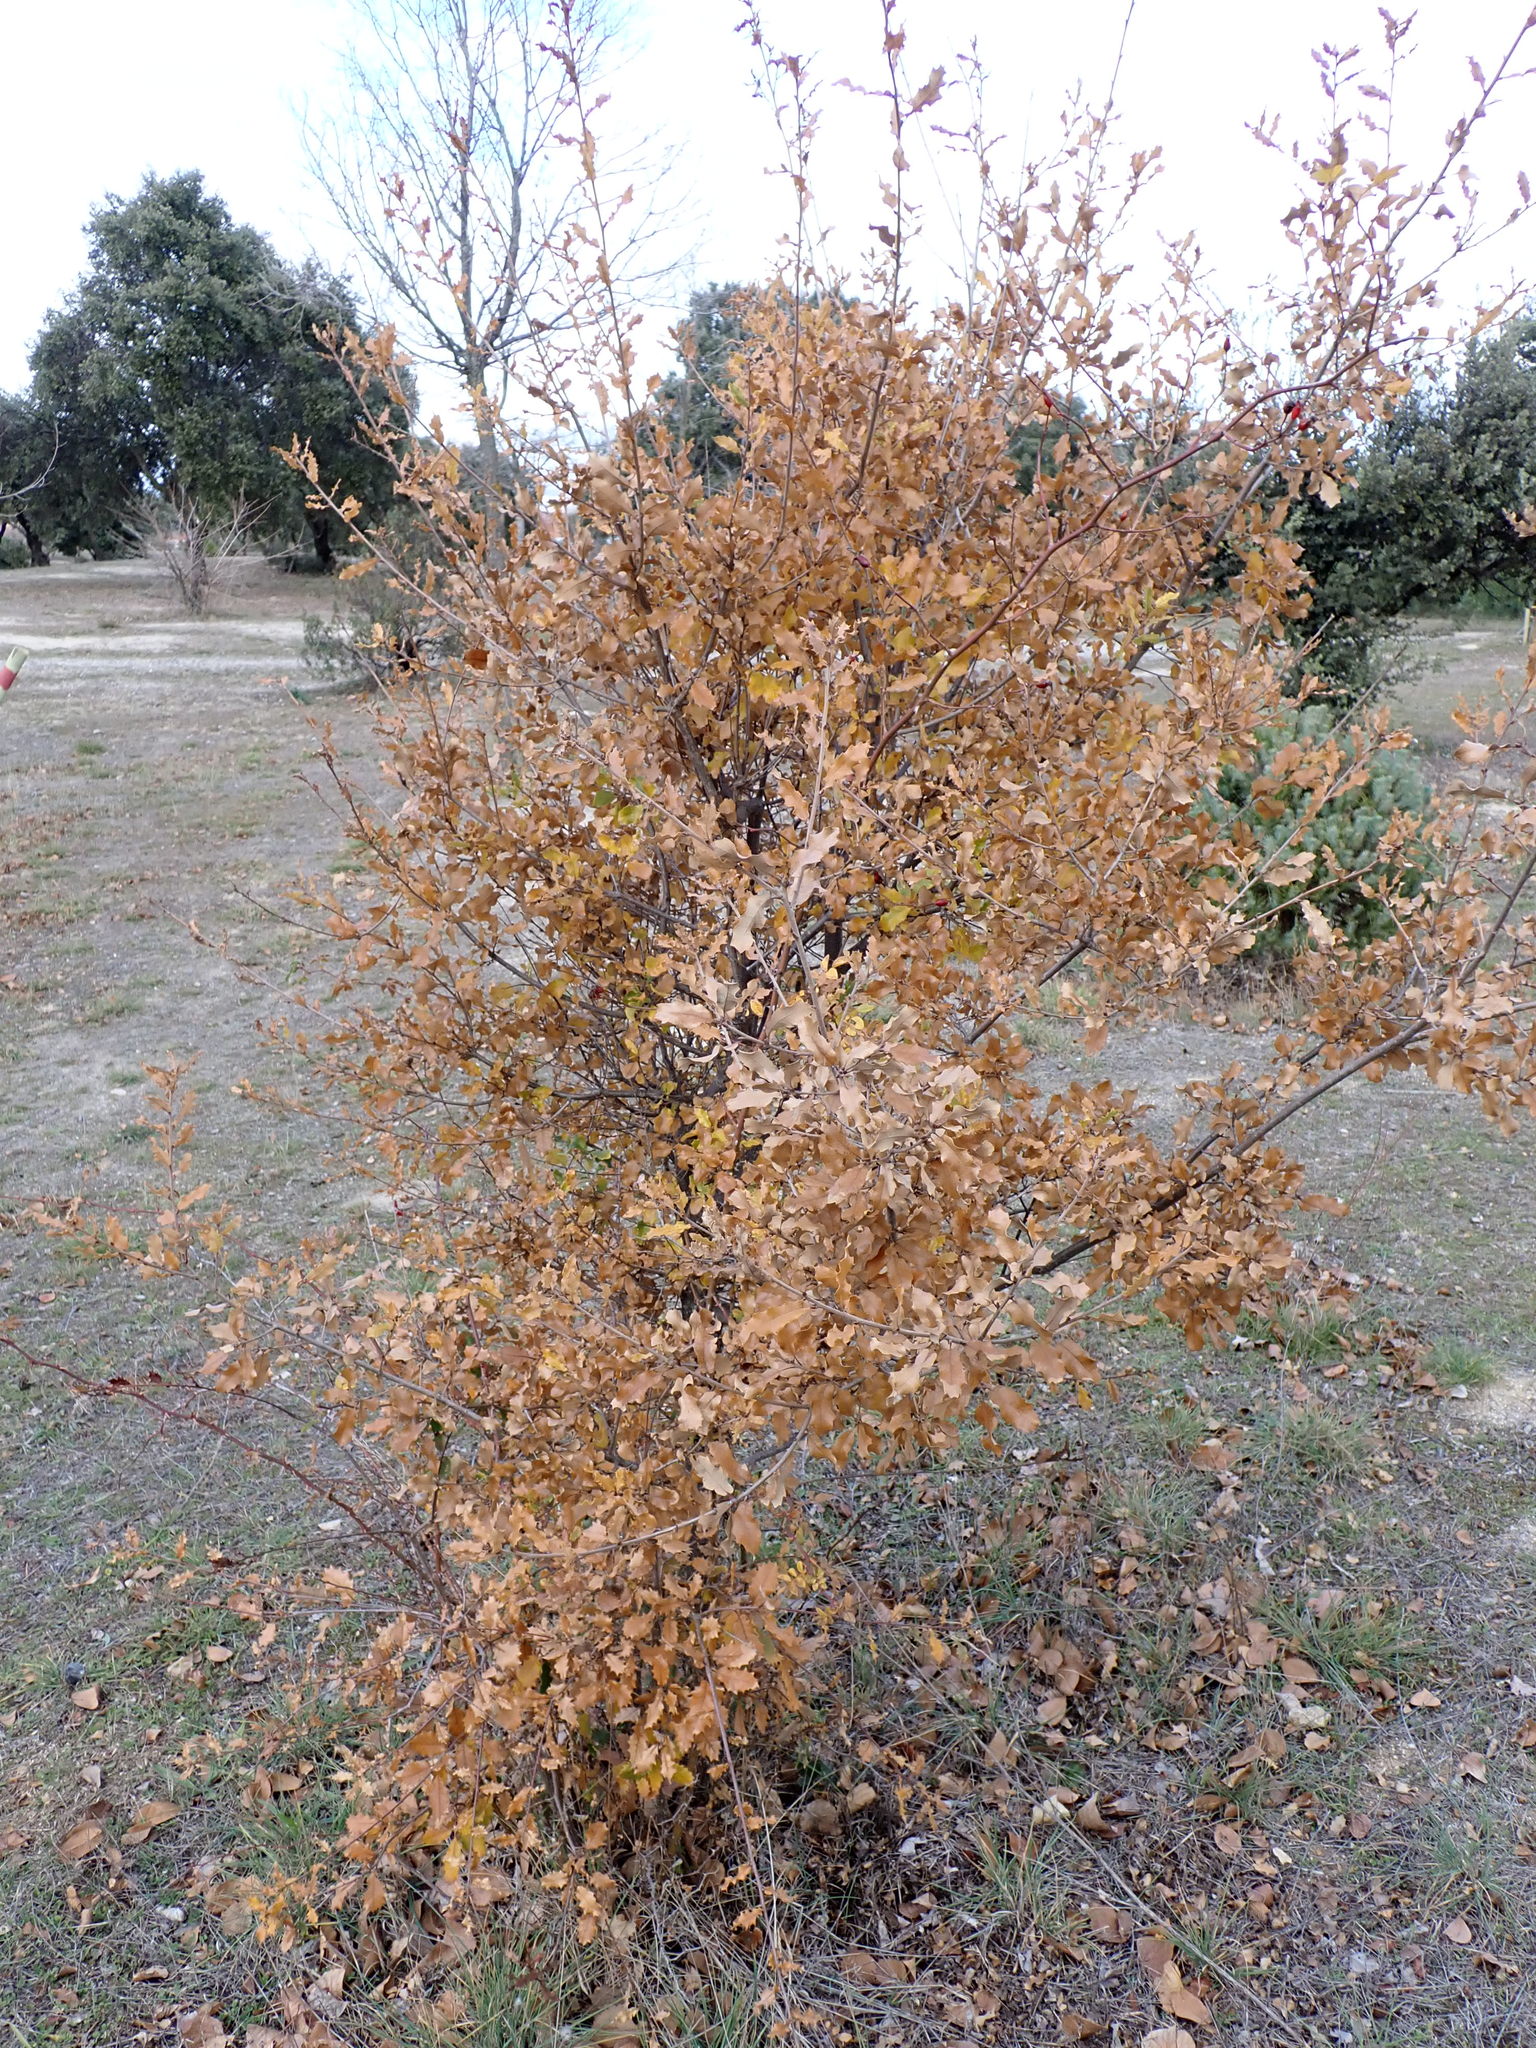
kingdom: Plantae
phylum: Tracheophyta
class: Magnoliopsida
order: Fagales
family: Fagaceae
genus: Quercus
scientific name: Quercus faginea
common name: Gall oak tree
